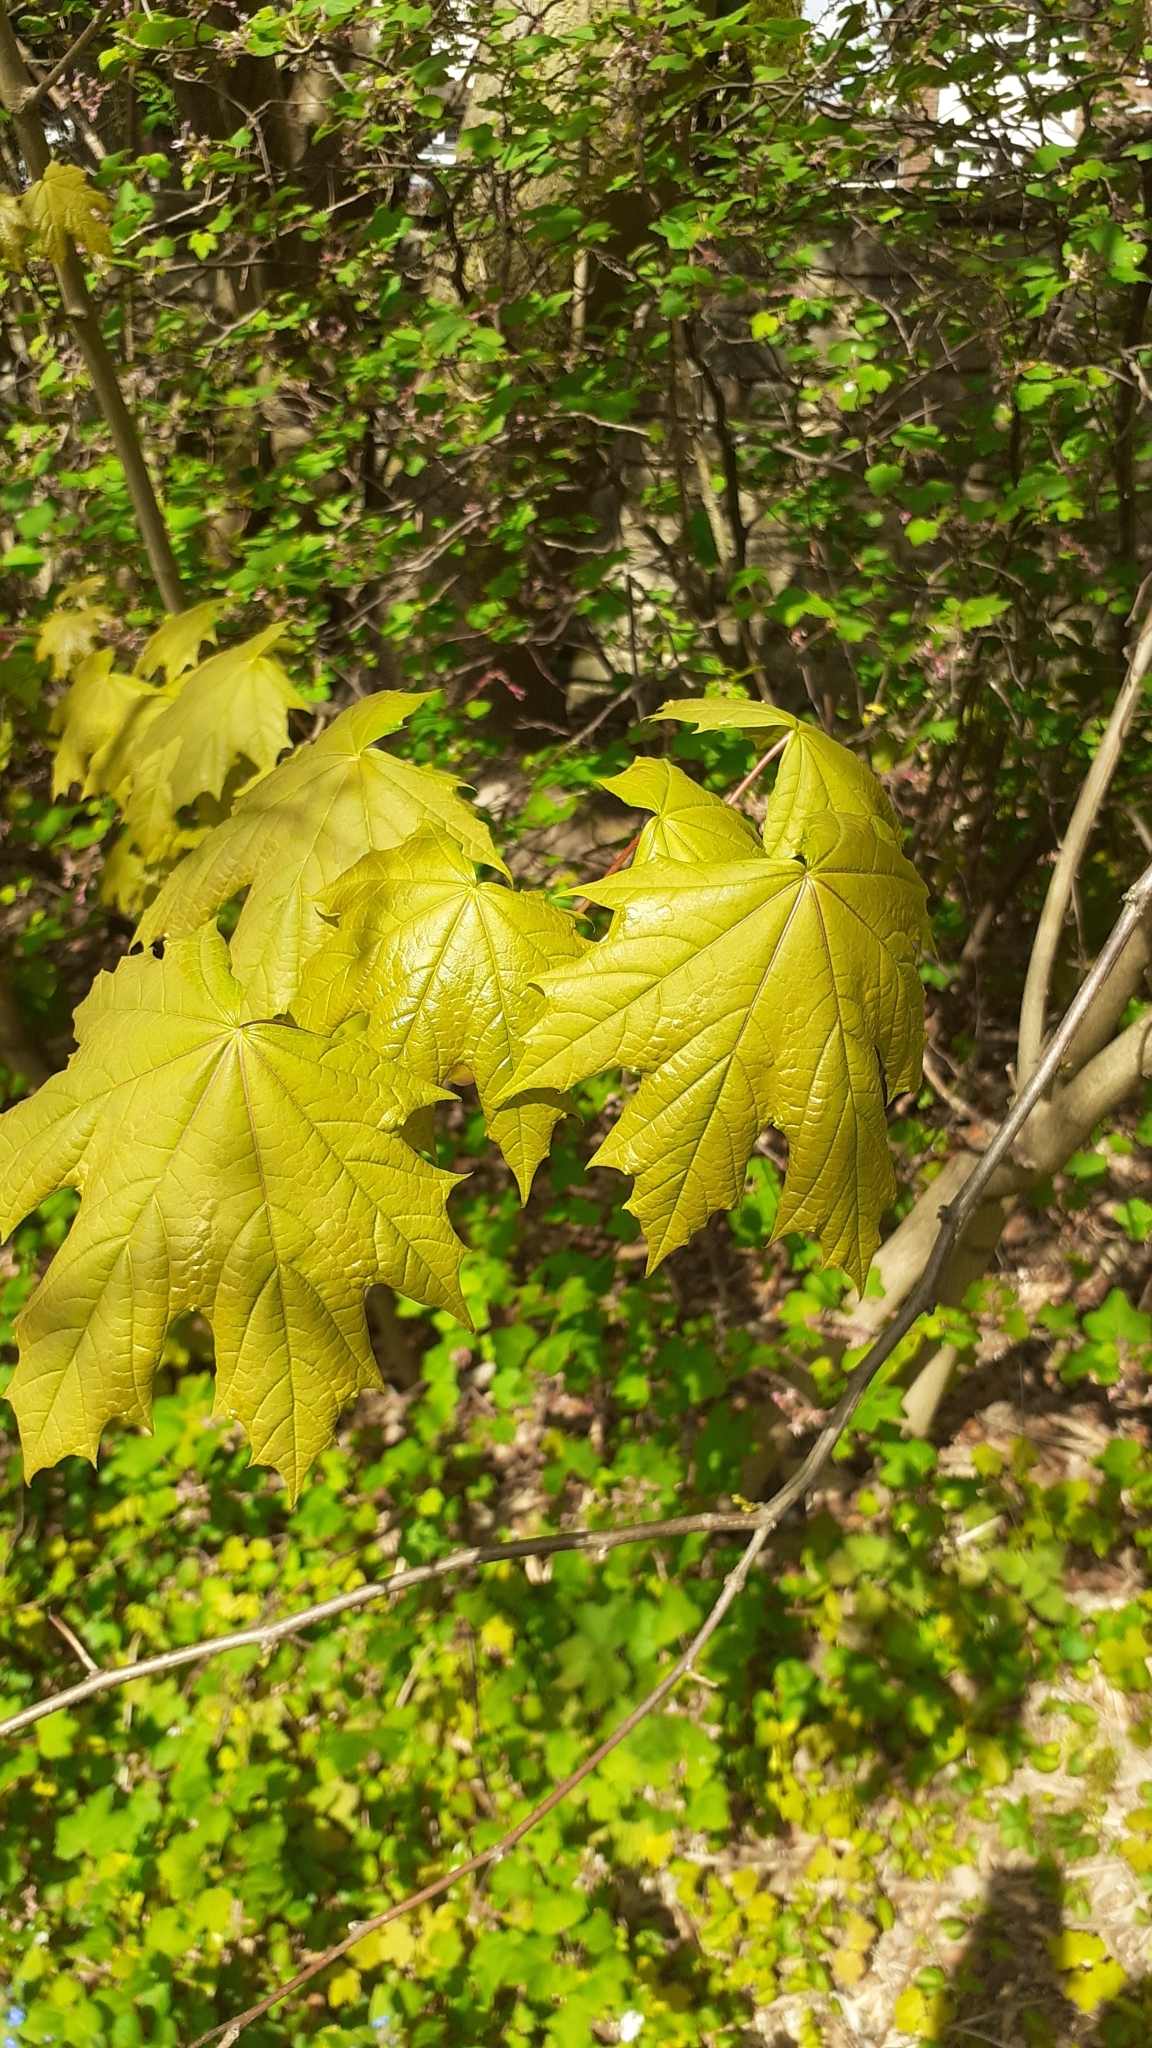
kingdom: Plantae
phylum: Tracheophyta
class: Magnoliopsida
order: Sapindales
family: Sapindaceae
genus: Acer
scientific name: Acer platanoides
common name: Norway maple
